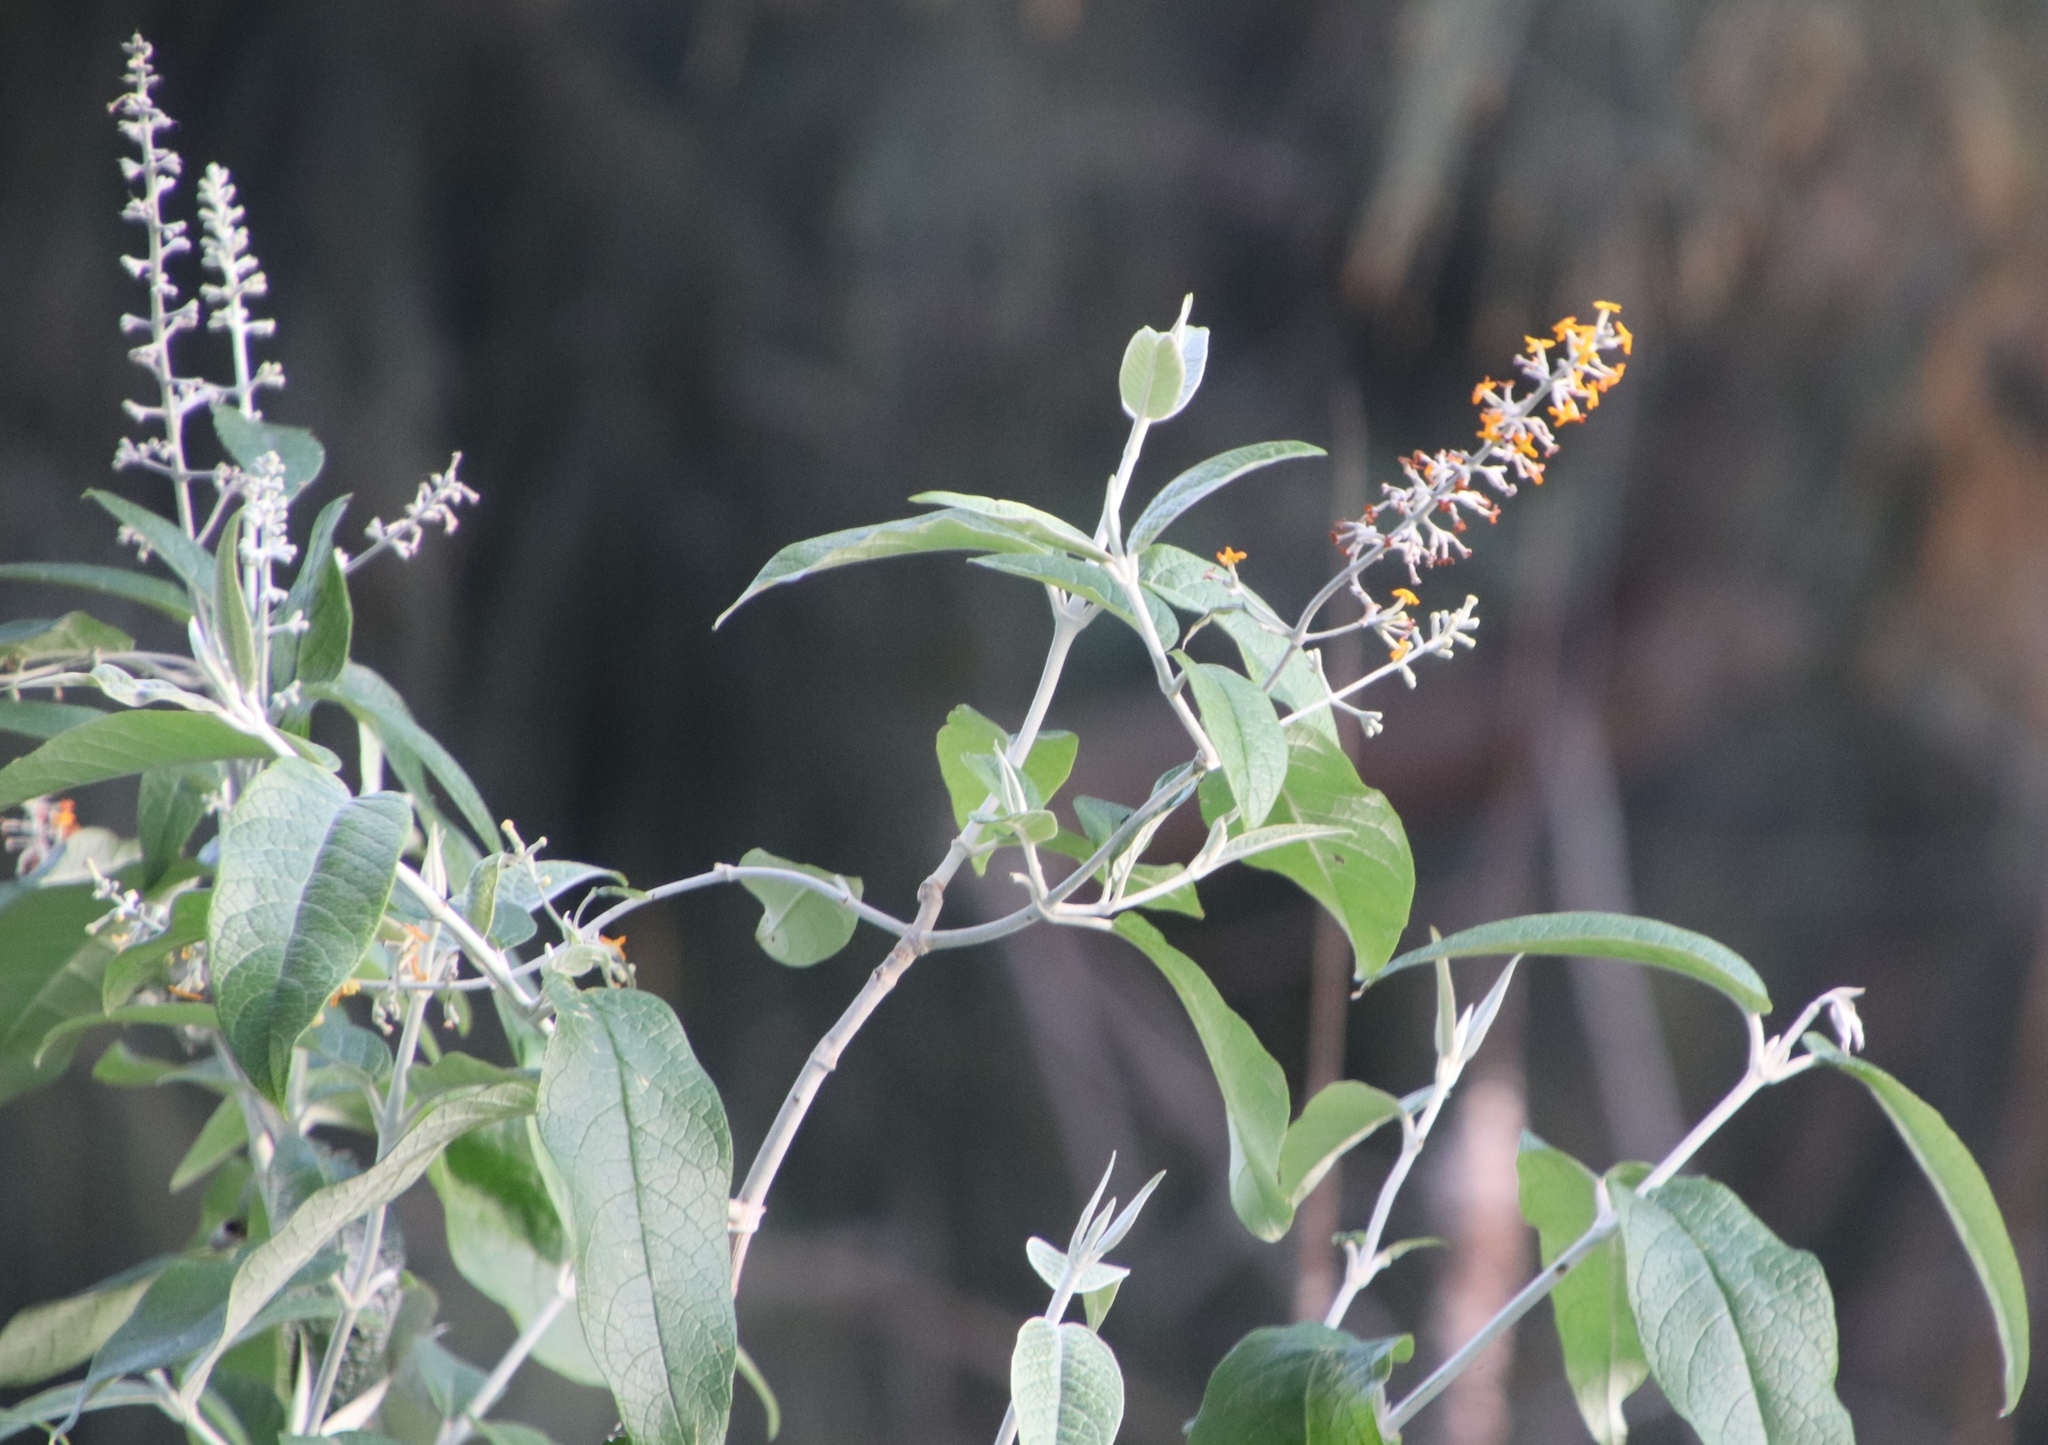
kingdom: Plantae
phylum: Tracheophyta
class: Magnoliopsida
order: Lamiales
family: Scrophulariaceae
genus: Buddleja
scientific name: Buddleja madagascariensis
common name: Smokebush
